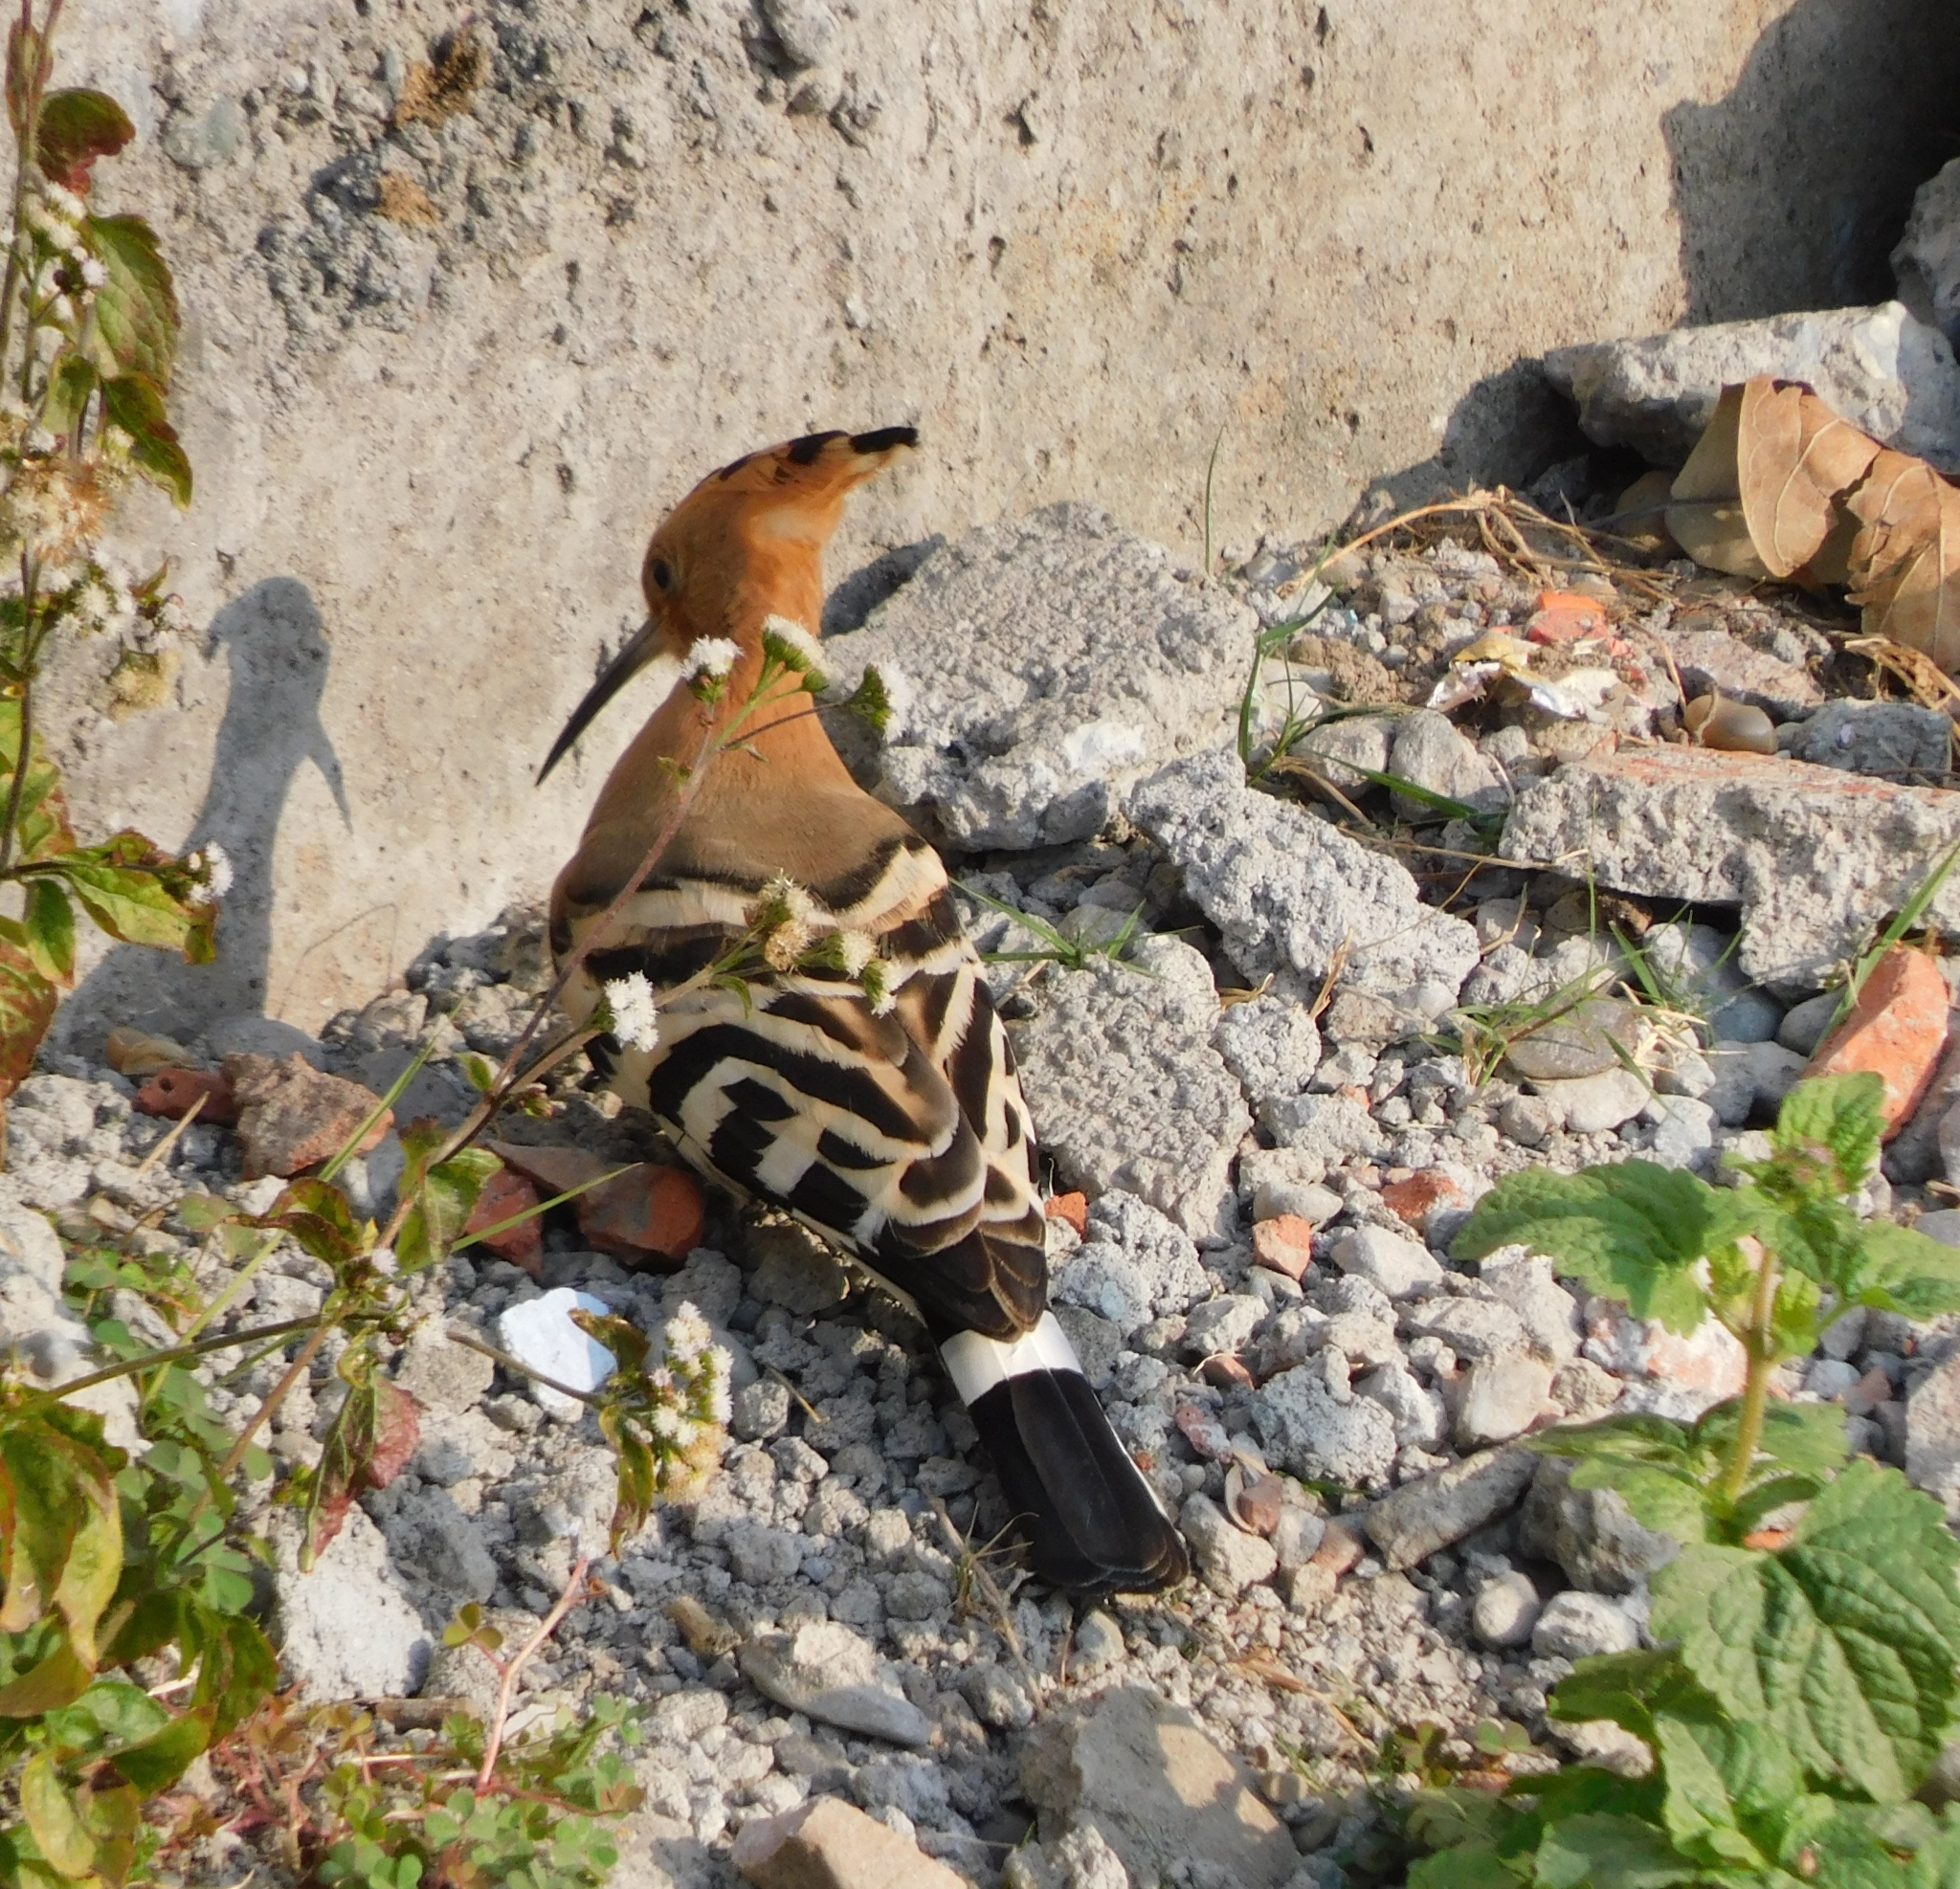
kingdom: Animalia
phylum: Chordata
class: Aves
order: Bucerotiformes
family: Upupidae
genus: Upupa
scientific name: Upupa epops
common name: Eurasian hoopoe
